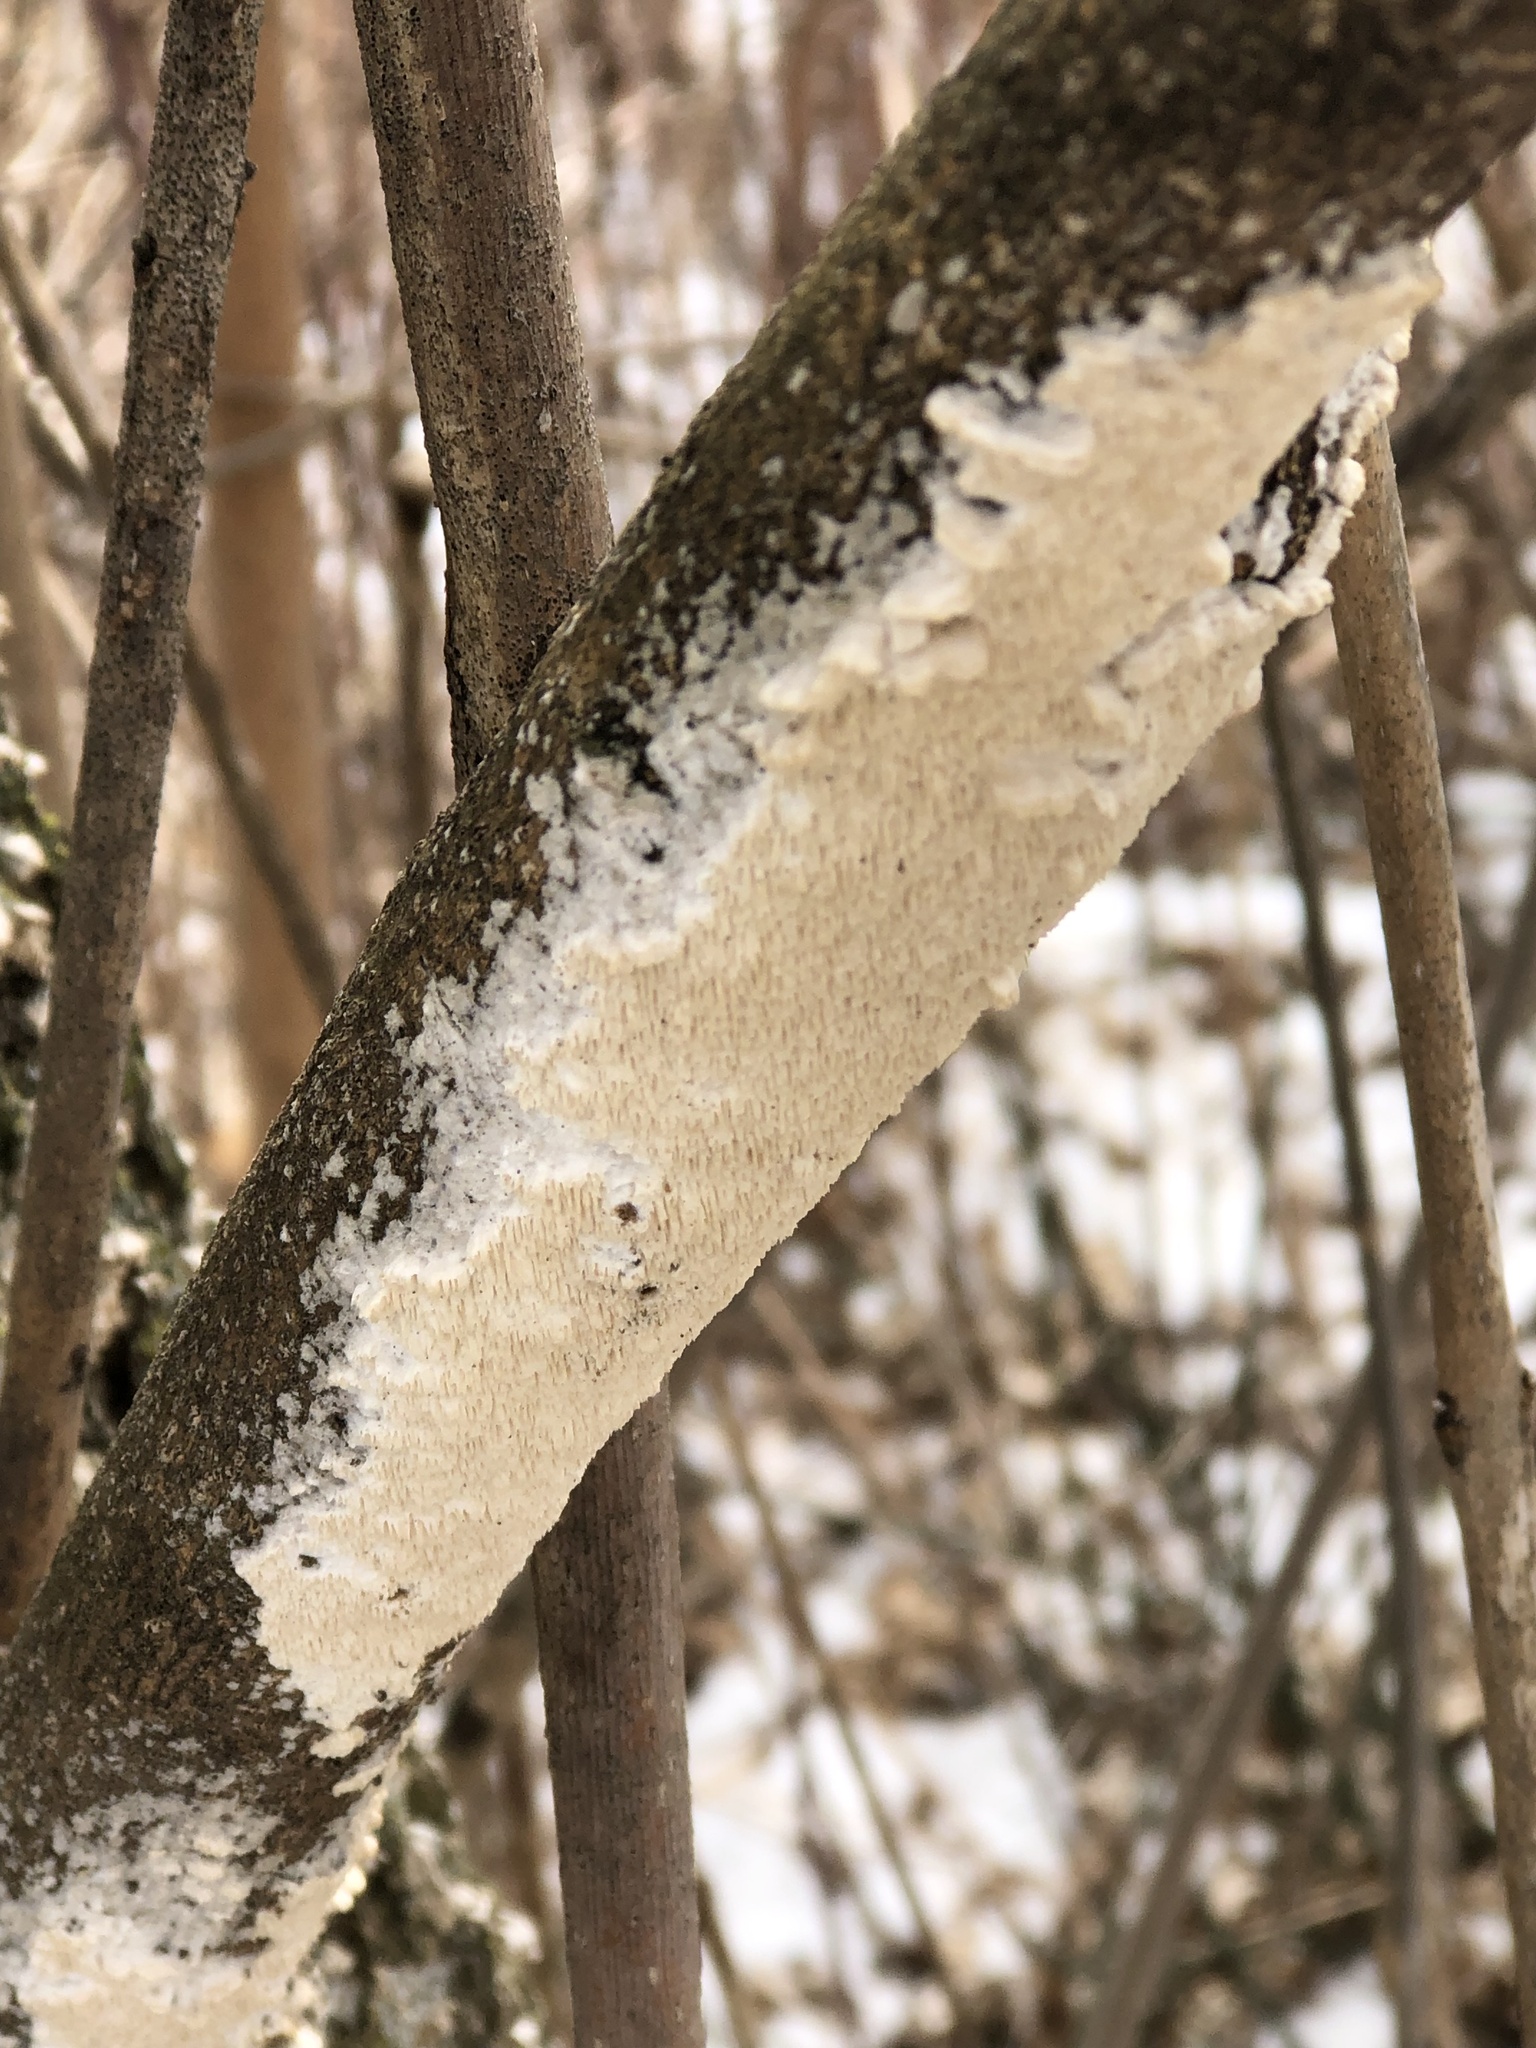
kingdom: Fungi
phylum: Basidiomycota
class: Agaricomycetes
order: Polyporales
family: Irpicaceae
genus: Irpex
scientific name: Irpex lacteus
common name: Milk-white toothed polypore
